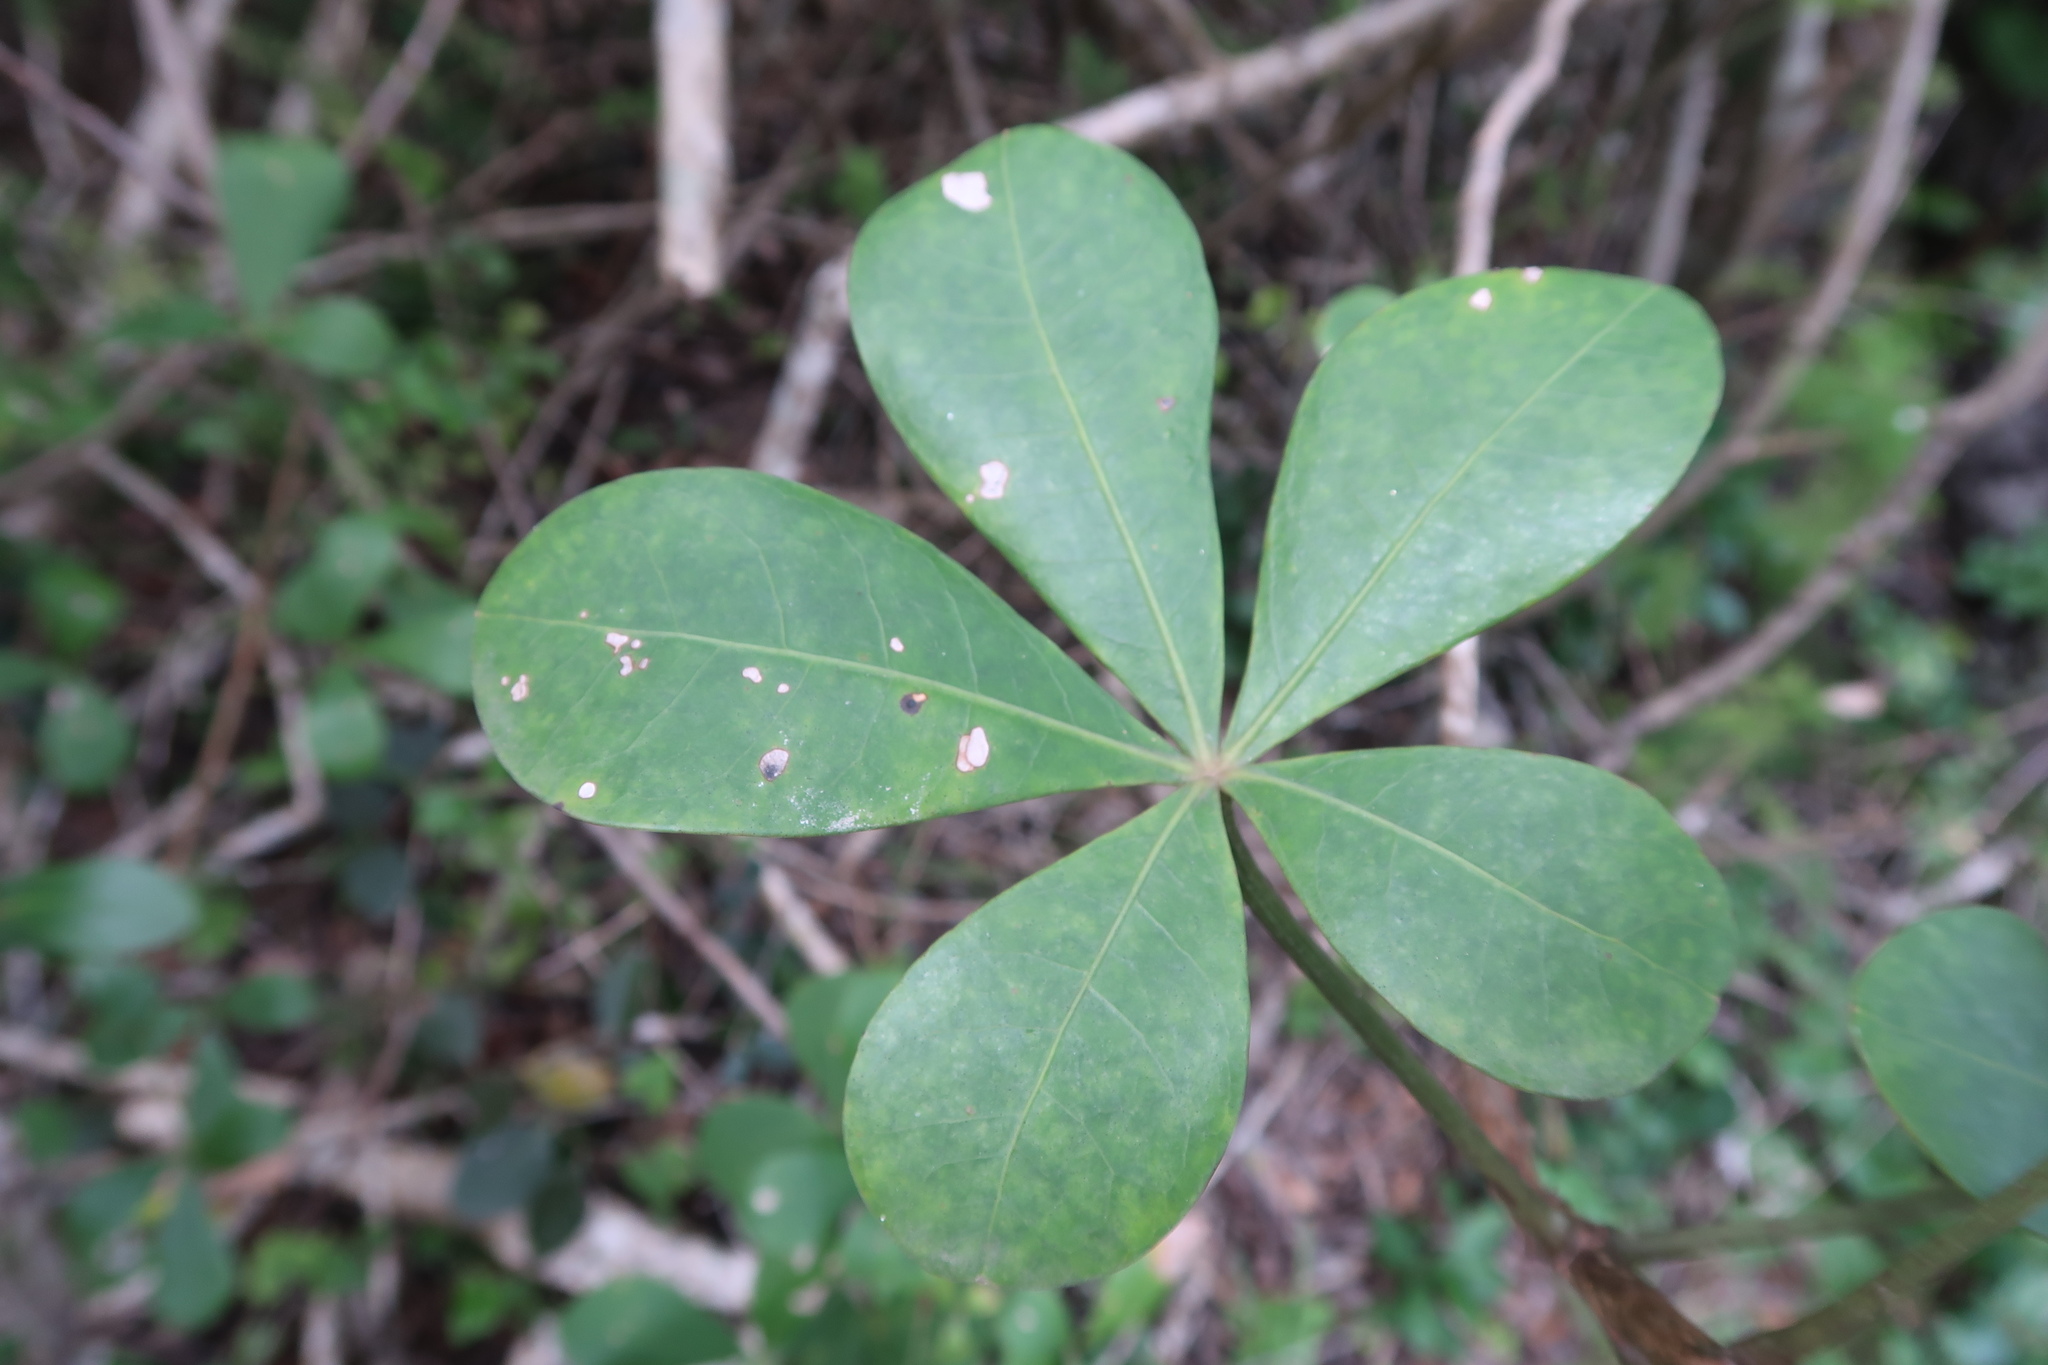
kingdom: Plantae
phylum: Tracheophyta
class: Magnoliopsida
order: Apiales
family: Araliaceae
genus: Cussonia
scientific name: Cussonia thyrsiflora
